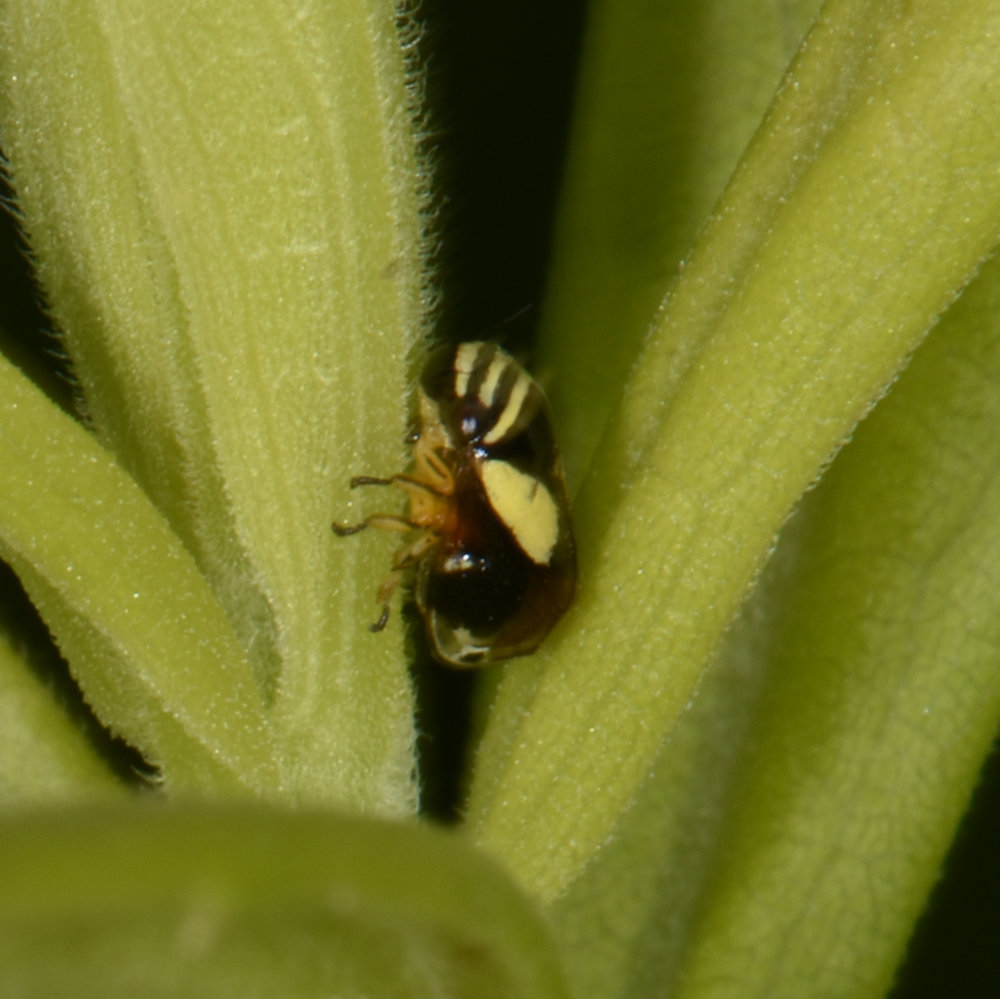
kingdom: Animalia
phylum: Arthropoda
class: Insecta
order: Hemiptera
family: Clastopteridae
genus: Clastoptera
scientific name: Clastoptera proteus
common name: Dogwood spittlebug
